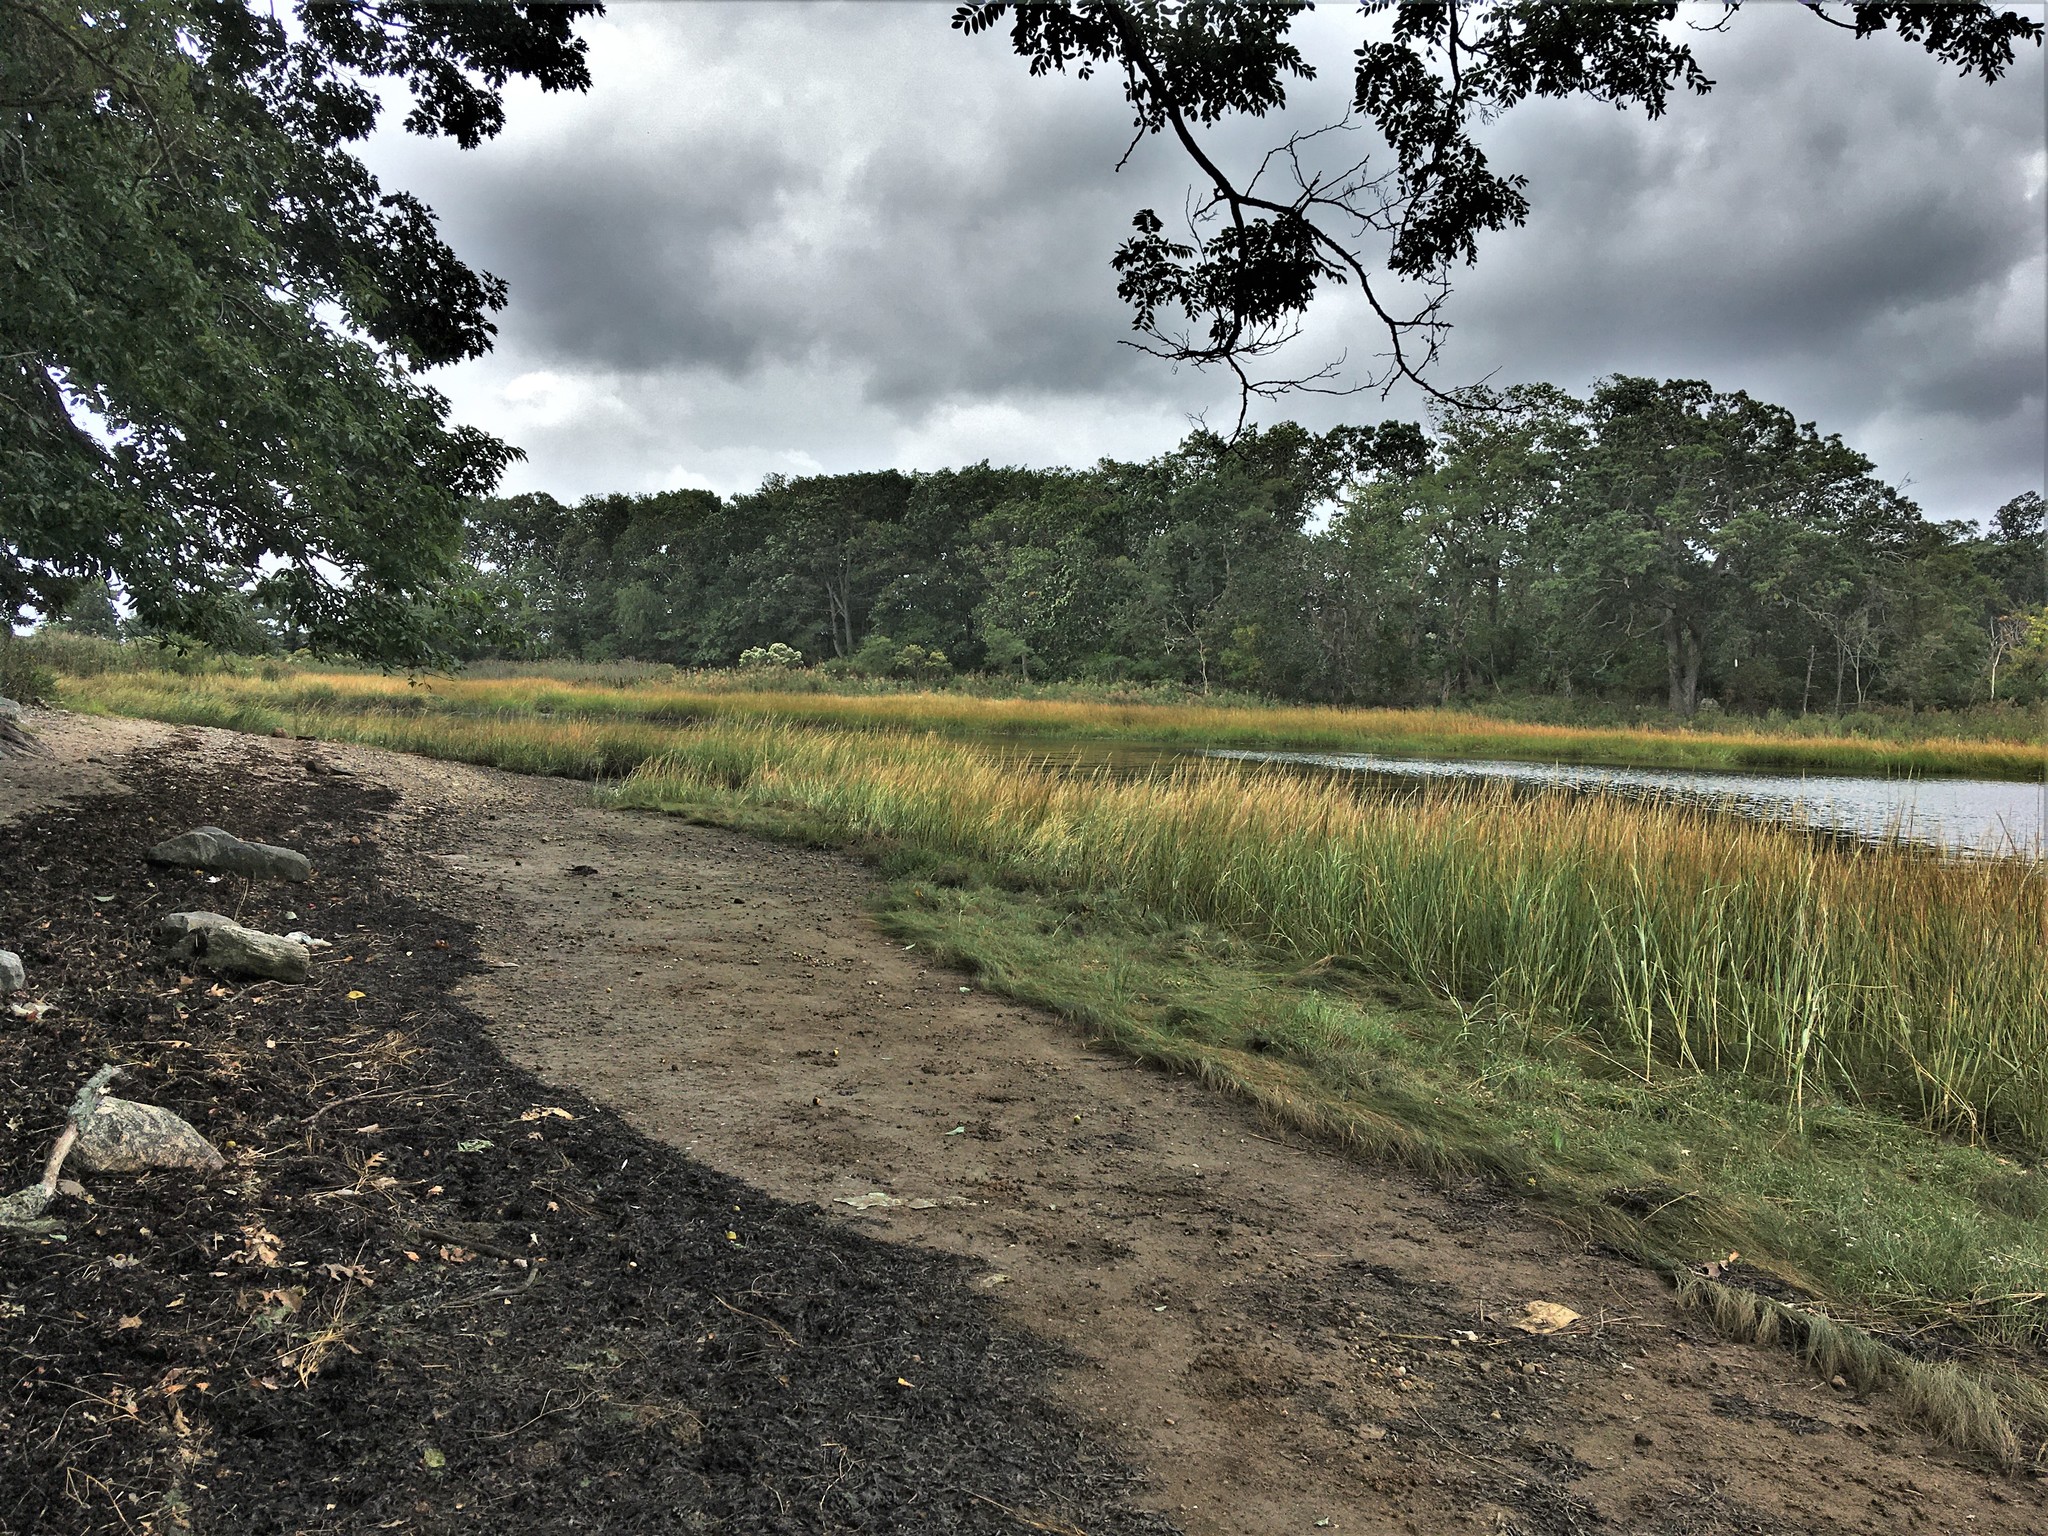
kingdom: Plantae
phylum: Tracheophyta
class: Liliopsida
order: Poales
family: Poaceae
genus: Sporobolus
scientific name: Sporobolus alterniflorus
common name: Atlantic cordgrass
